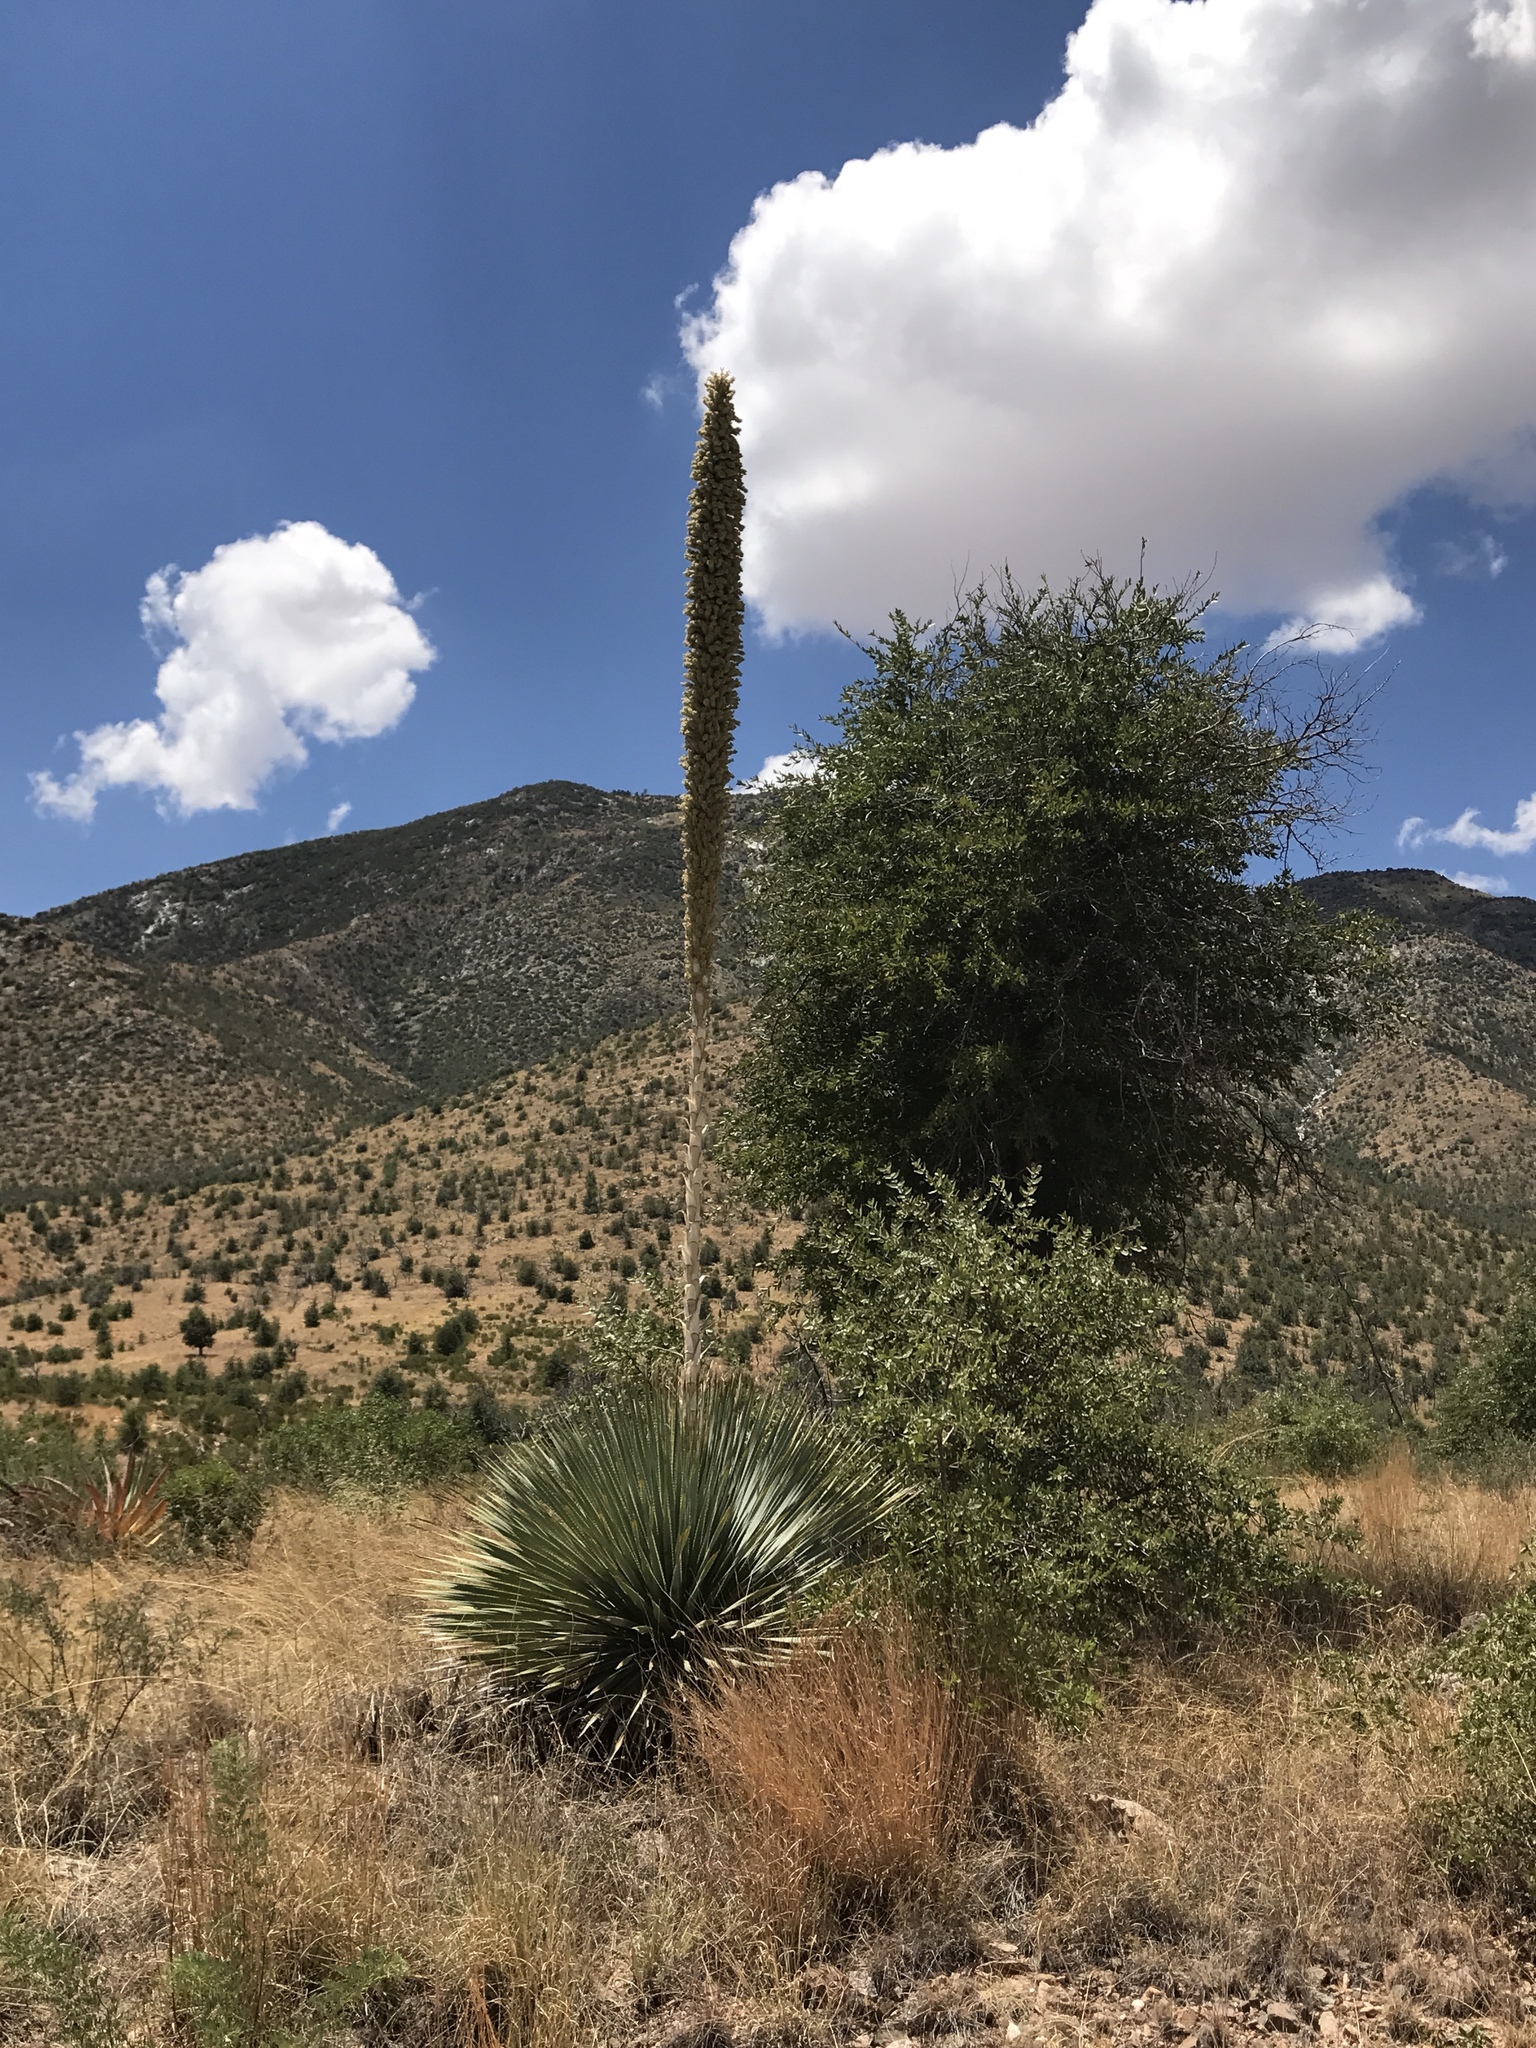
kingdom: Plantae
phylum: Tracheophyta
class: Liliopsida
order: Asparagales
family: Asparagaceae
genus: Dasylirion
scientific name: Dasylirion wheeleri
